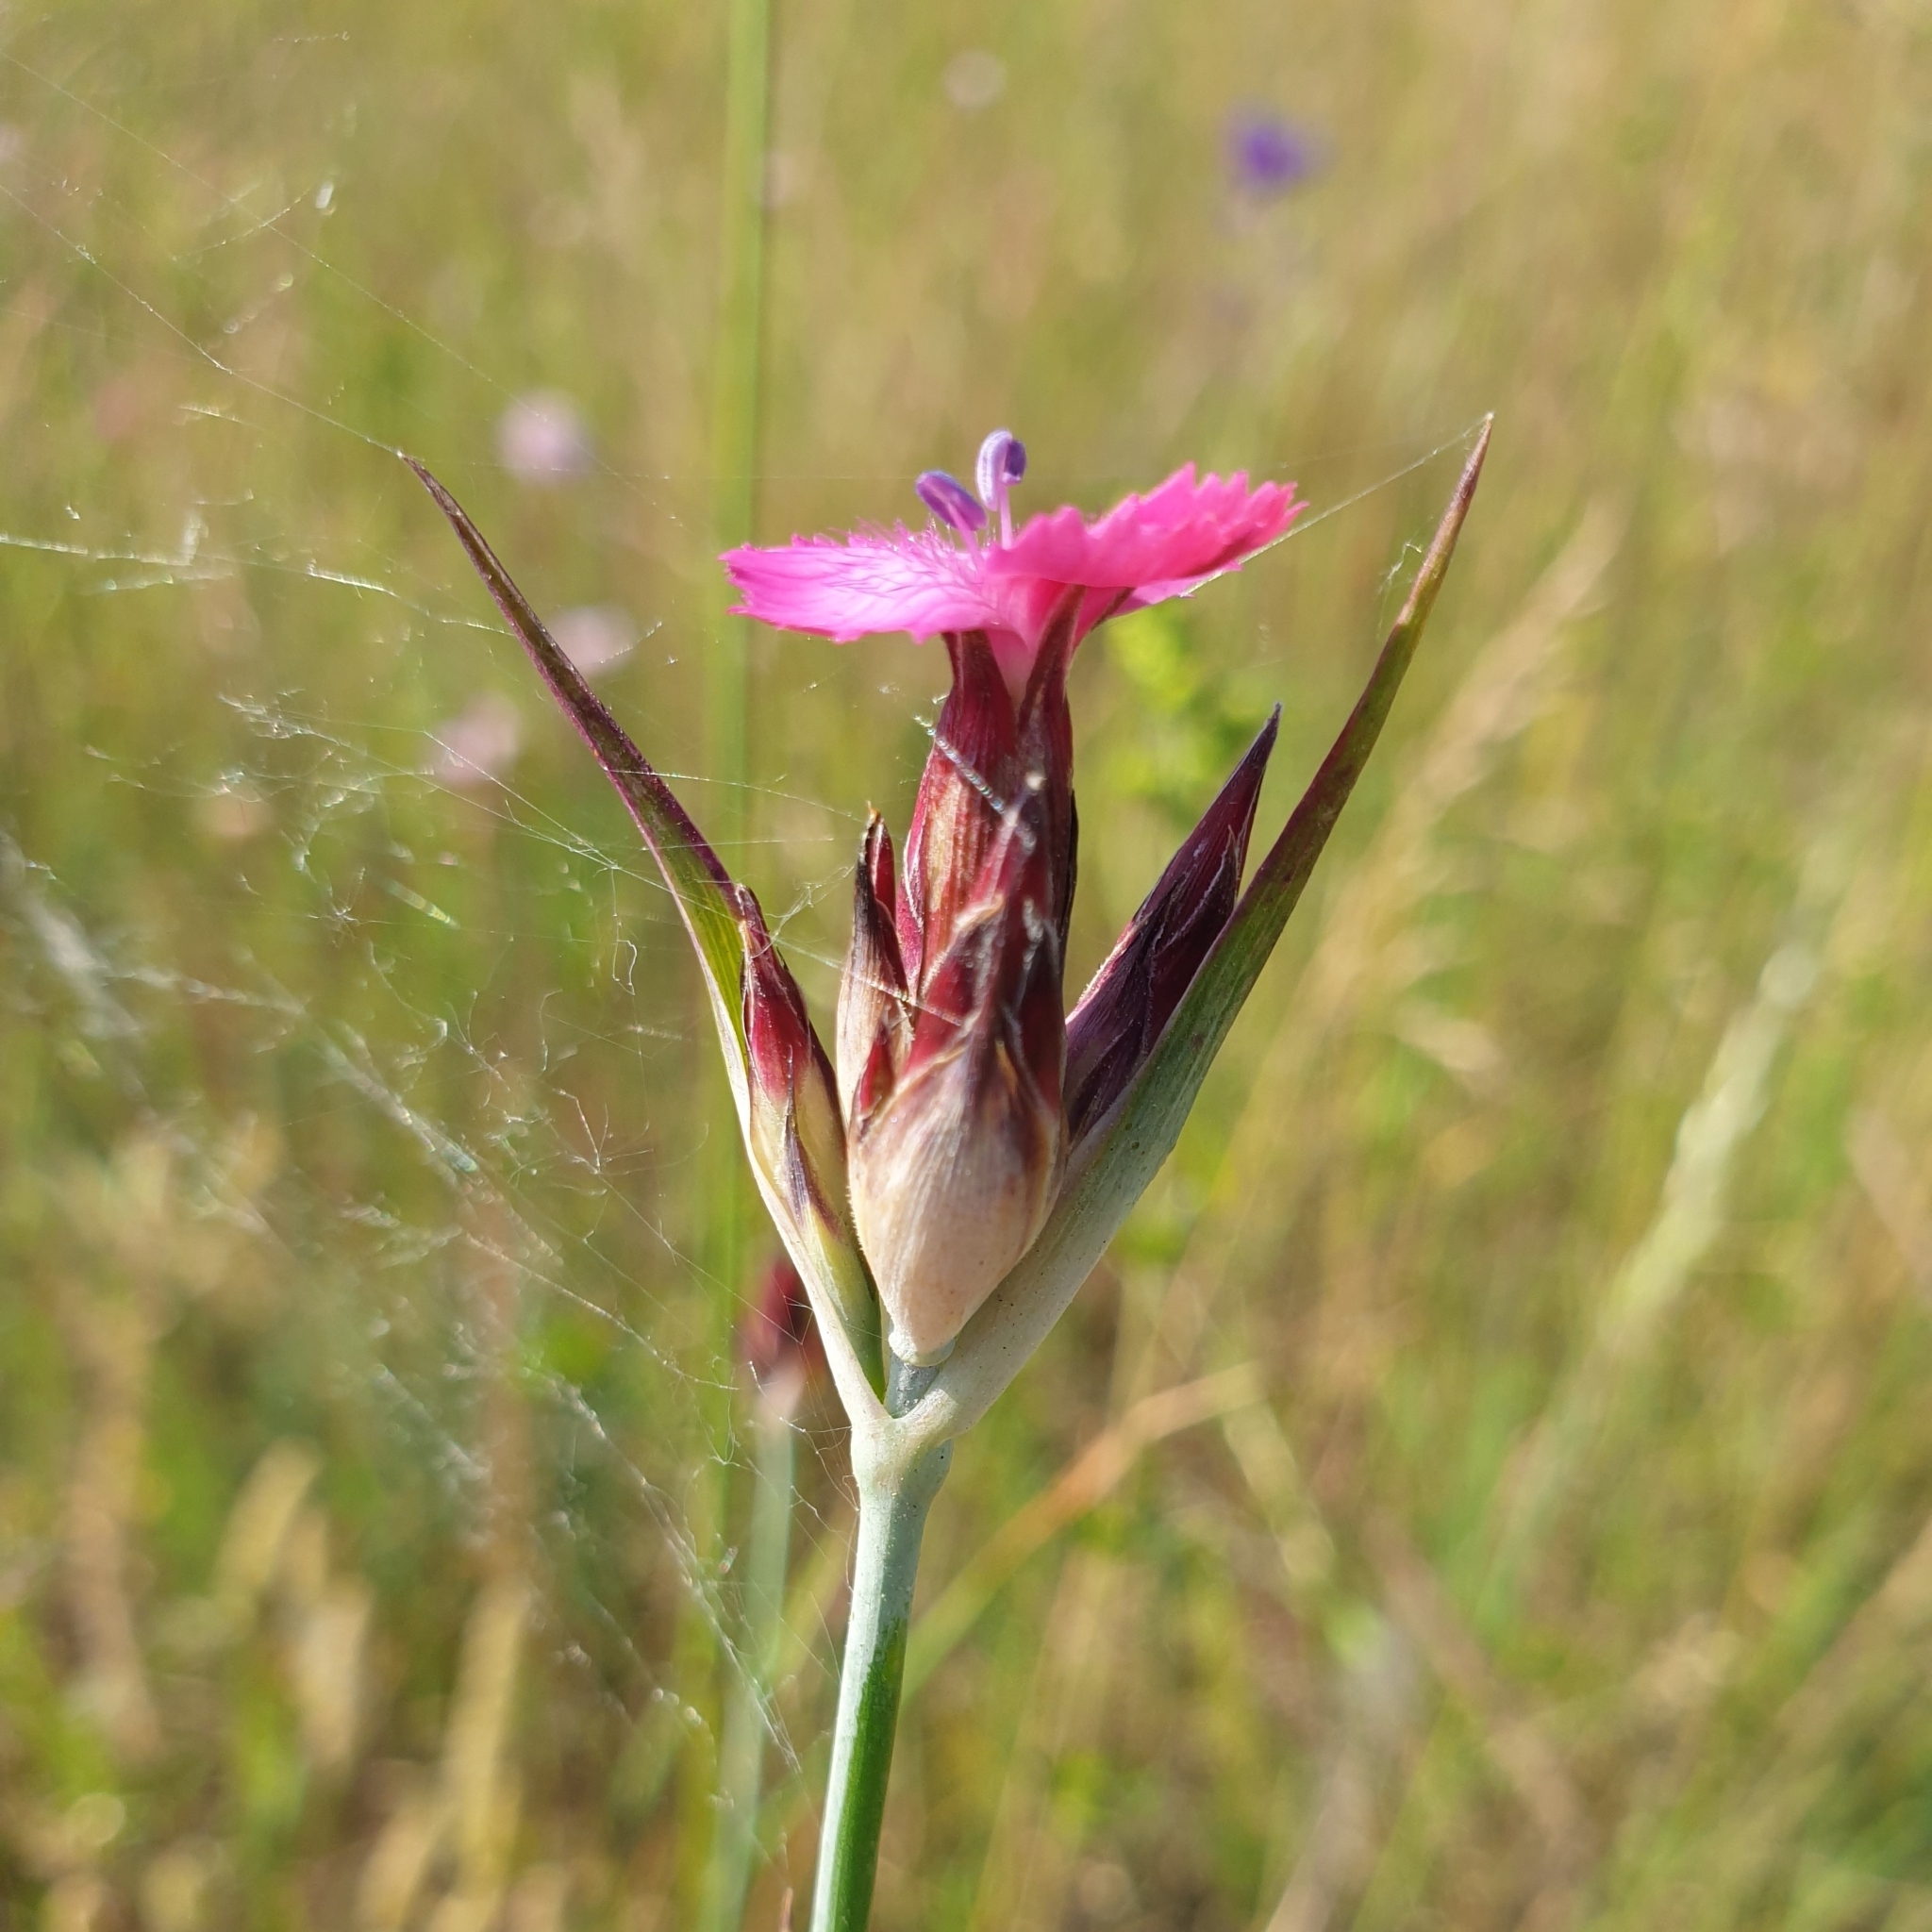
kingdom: Plantae
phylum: Tracheophyta
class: Magnoliopsida
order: Caryophyllales
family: Caryophyllaceae
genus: Dianthus
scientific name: Dianthus giganteus
